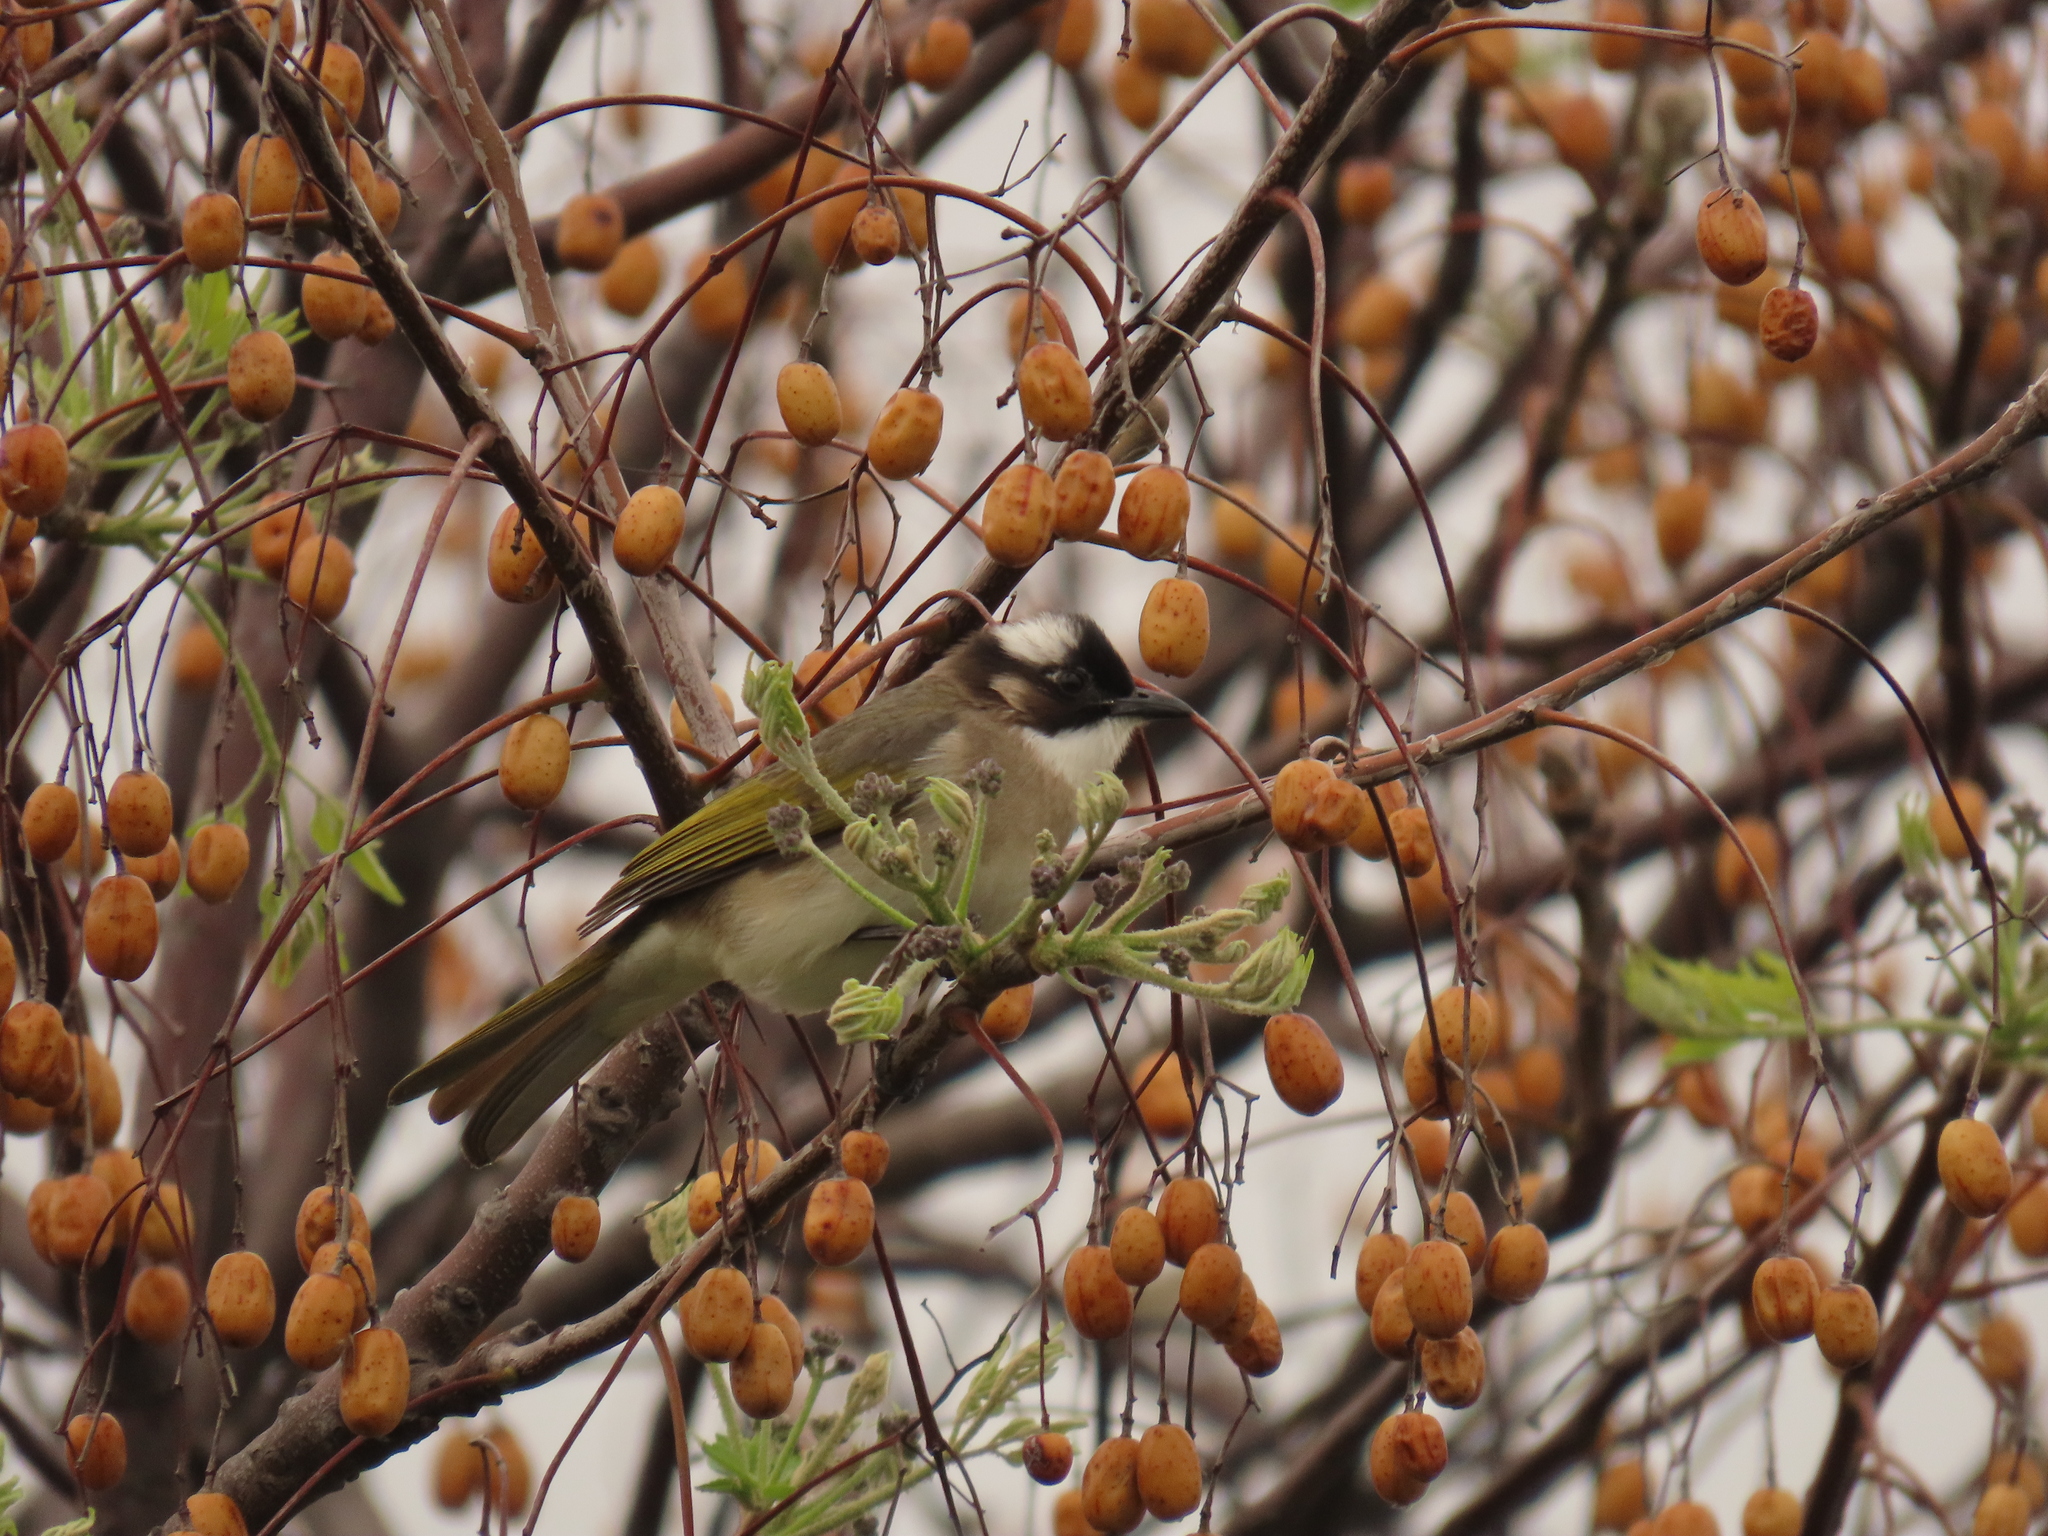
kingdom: Animalia
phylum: Chordata
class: Aves
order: Passeriformes
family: Pycnonotidae
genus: Pycnonotus
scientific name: Pycnonotus sinensis
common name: Light-vented bulbul
